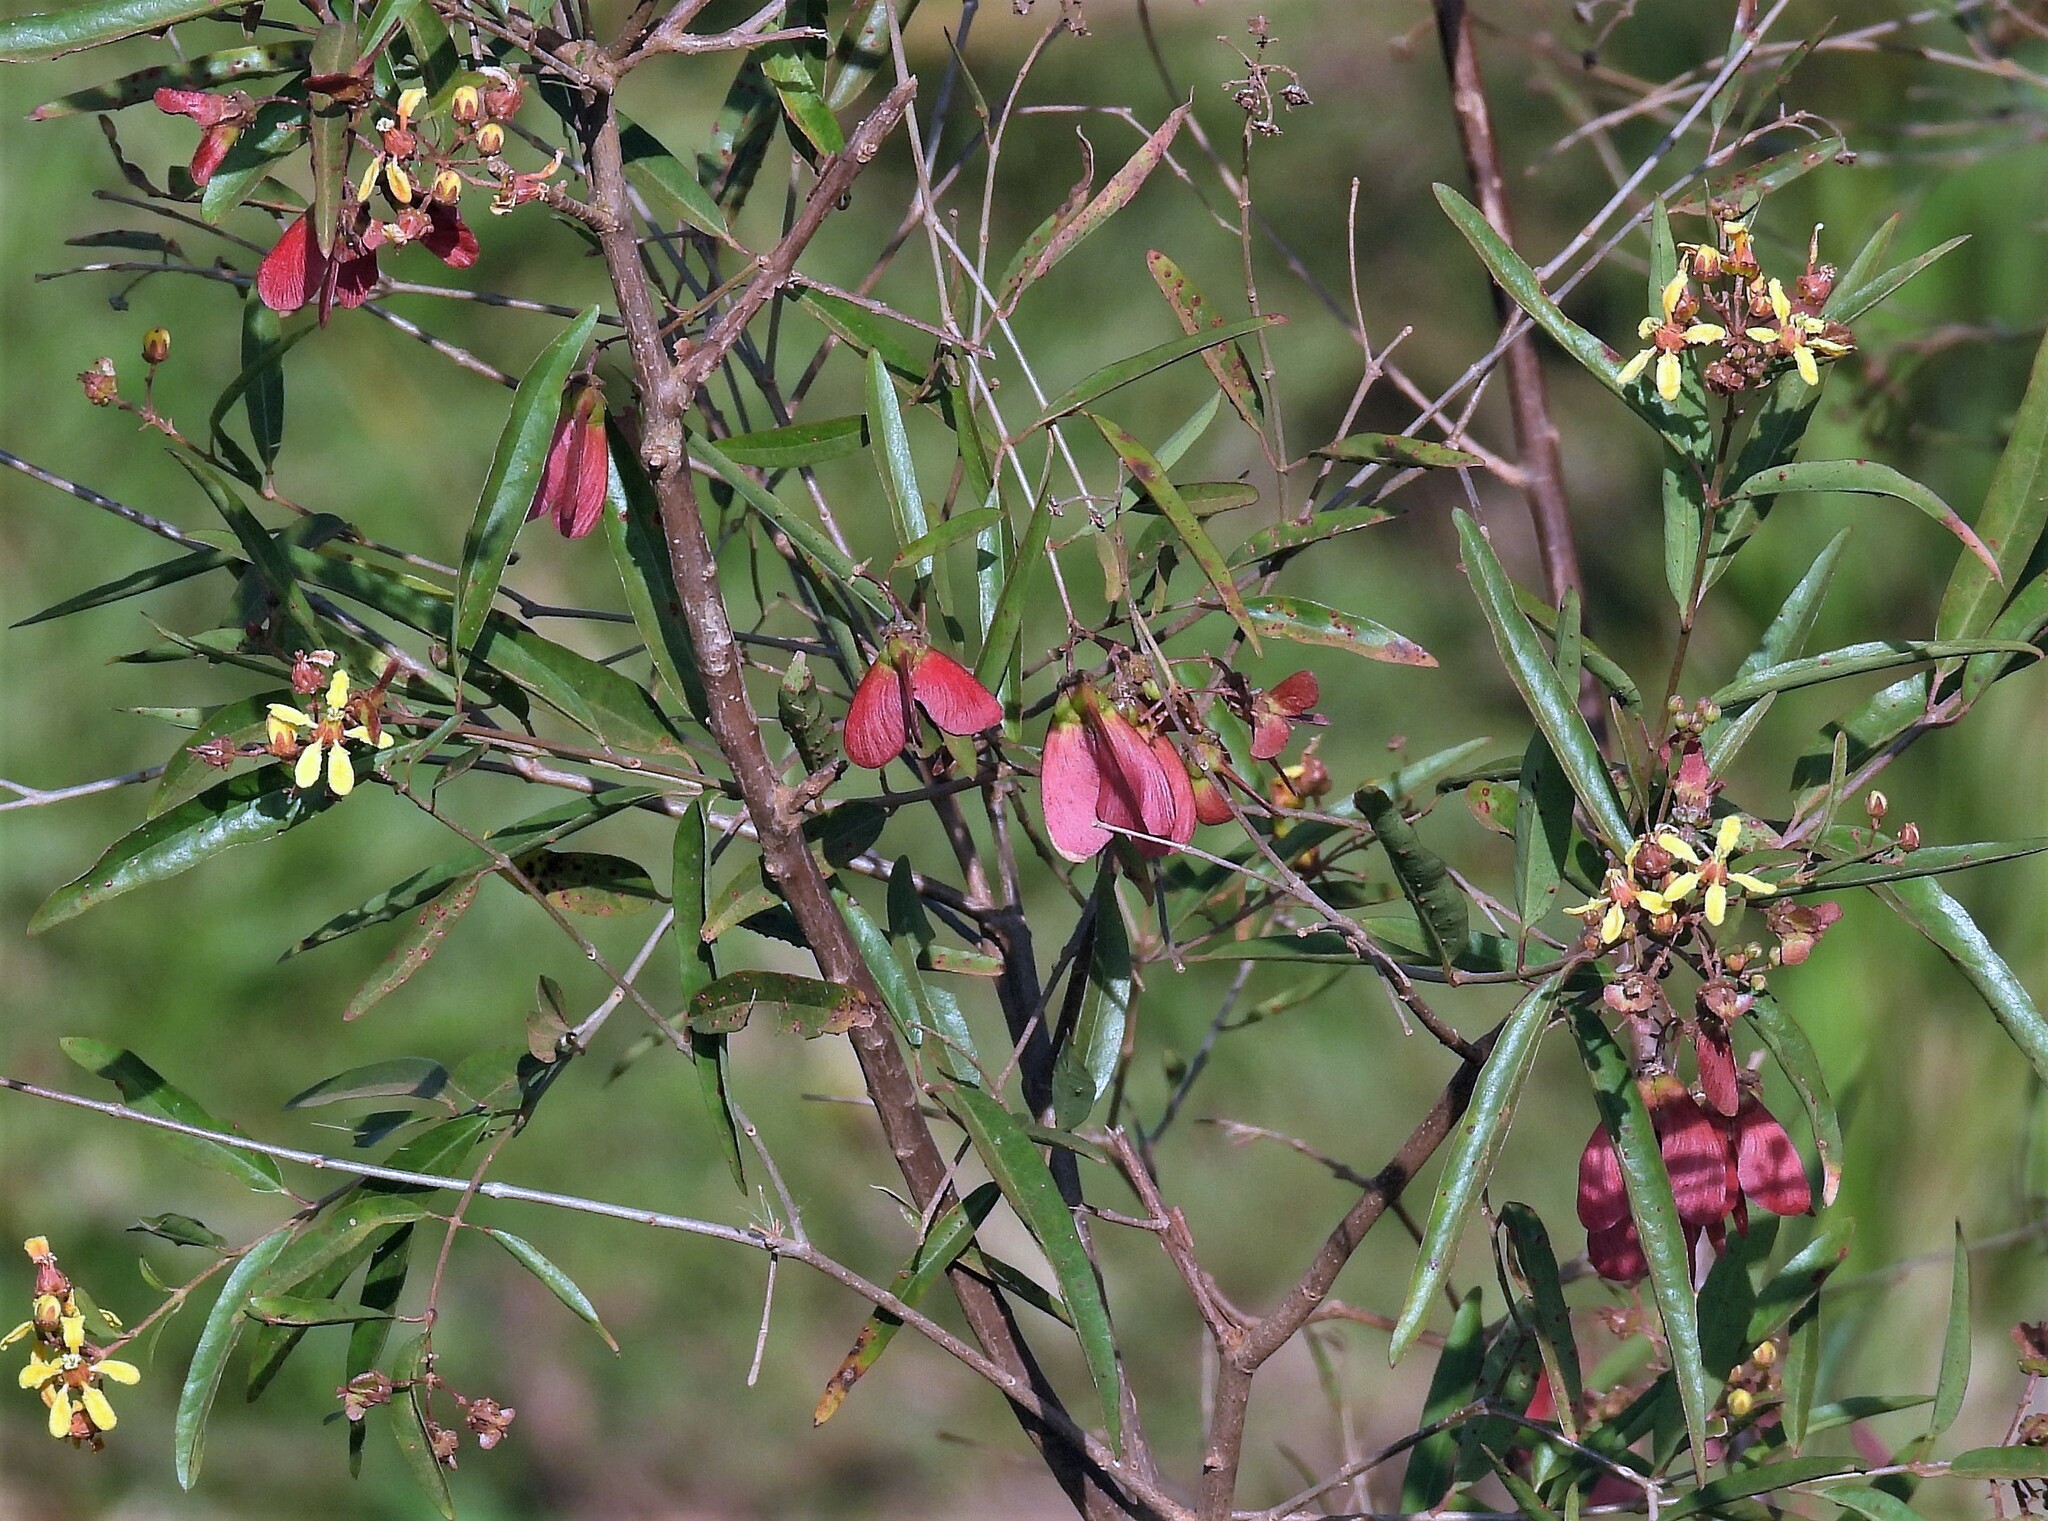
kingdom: Plantae
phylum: Tracheophyta
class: Magnoliopsida
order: Malpighiales
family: Malpighiaceae
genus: Heteropterys
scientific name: Heteropterys glabra
